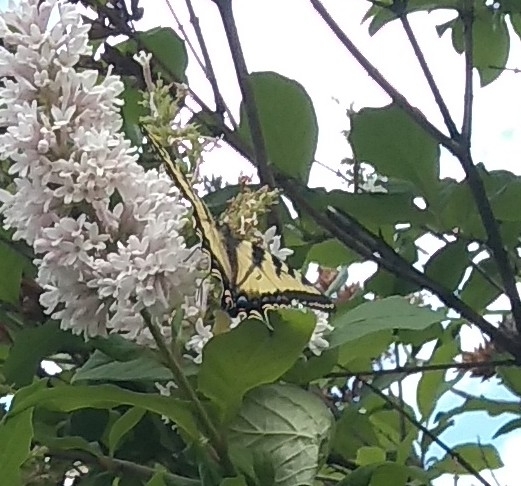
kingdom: Animalia
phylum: Arthropoda
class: Insecta
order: Lepidoptera
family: Papilionidae
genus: Papilio
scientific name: Papilio canadensis
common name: Canadian tiger swallowtail
